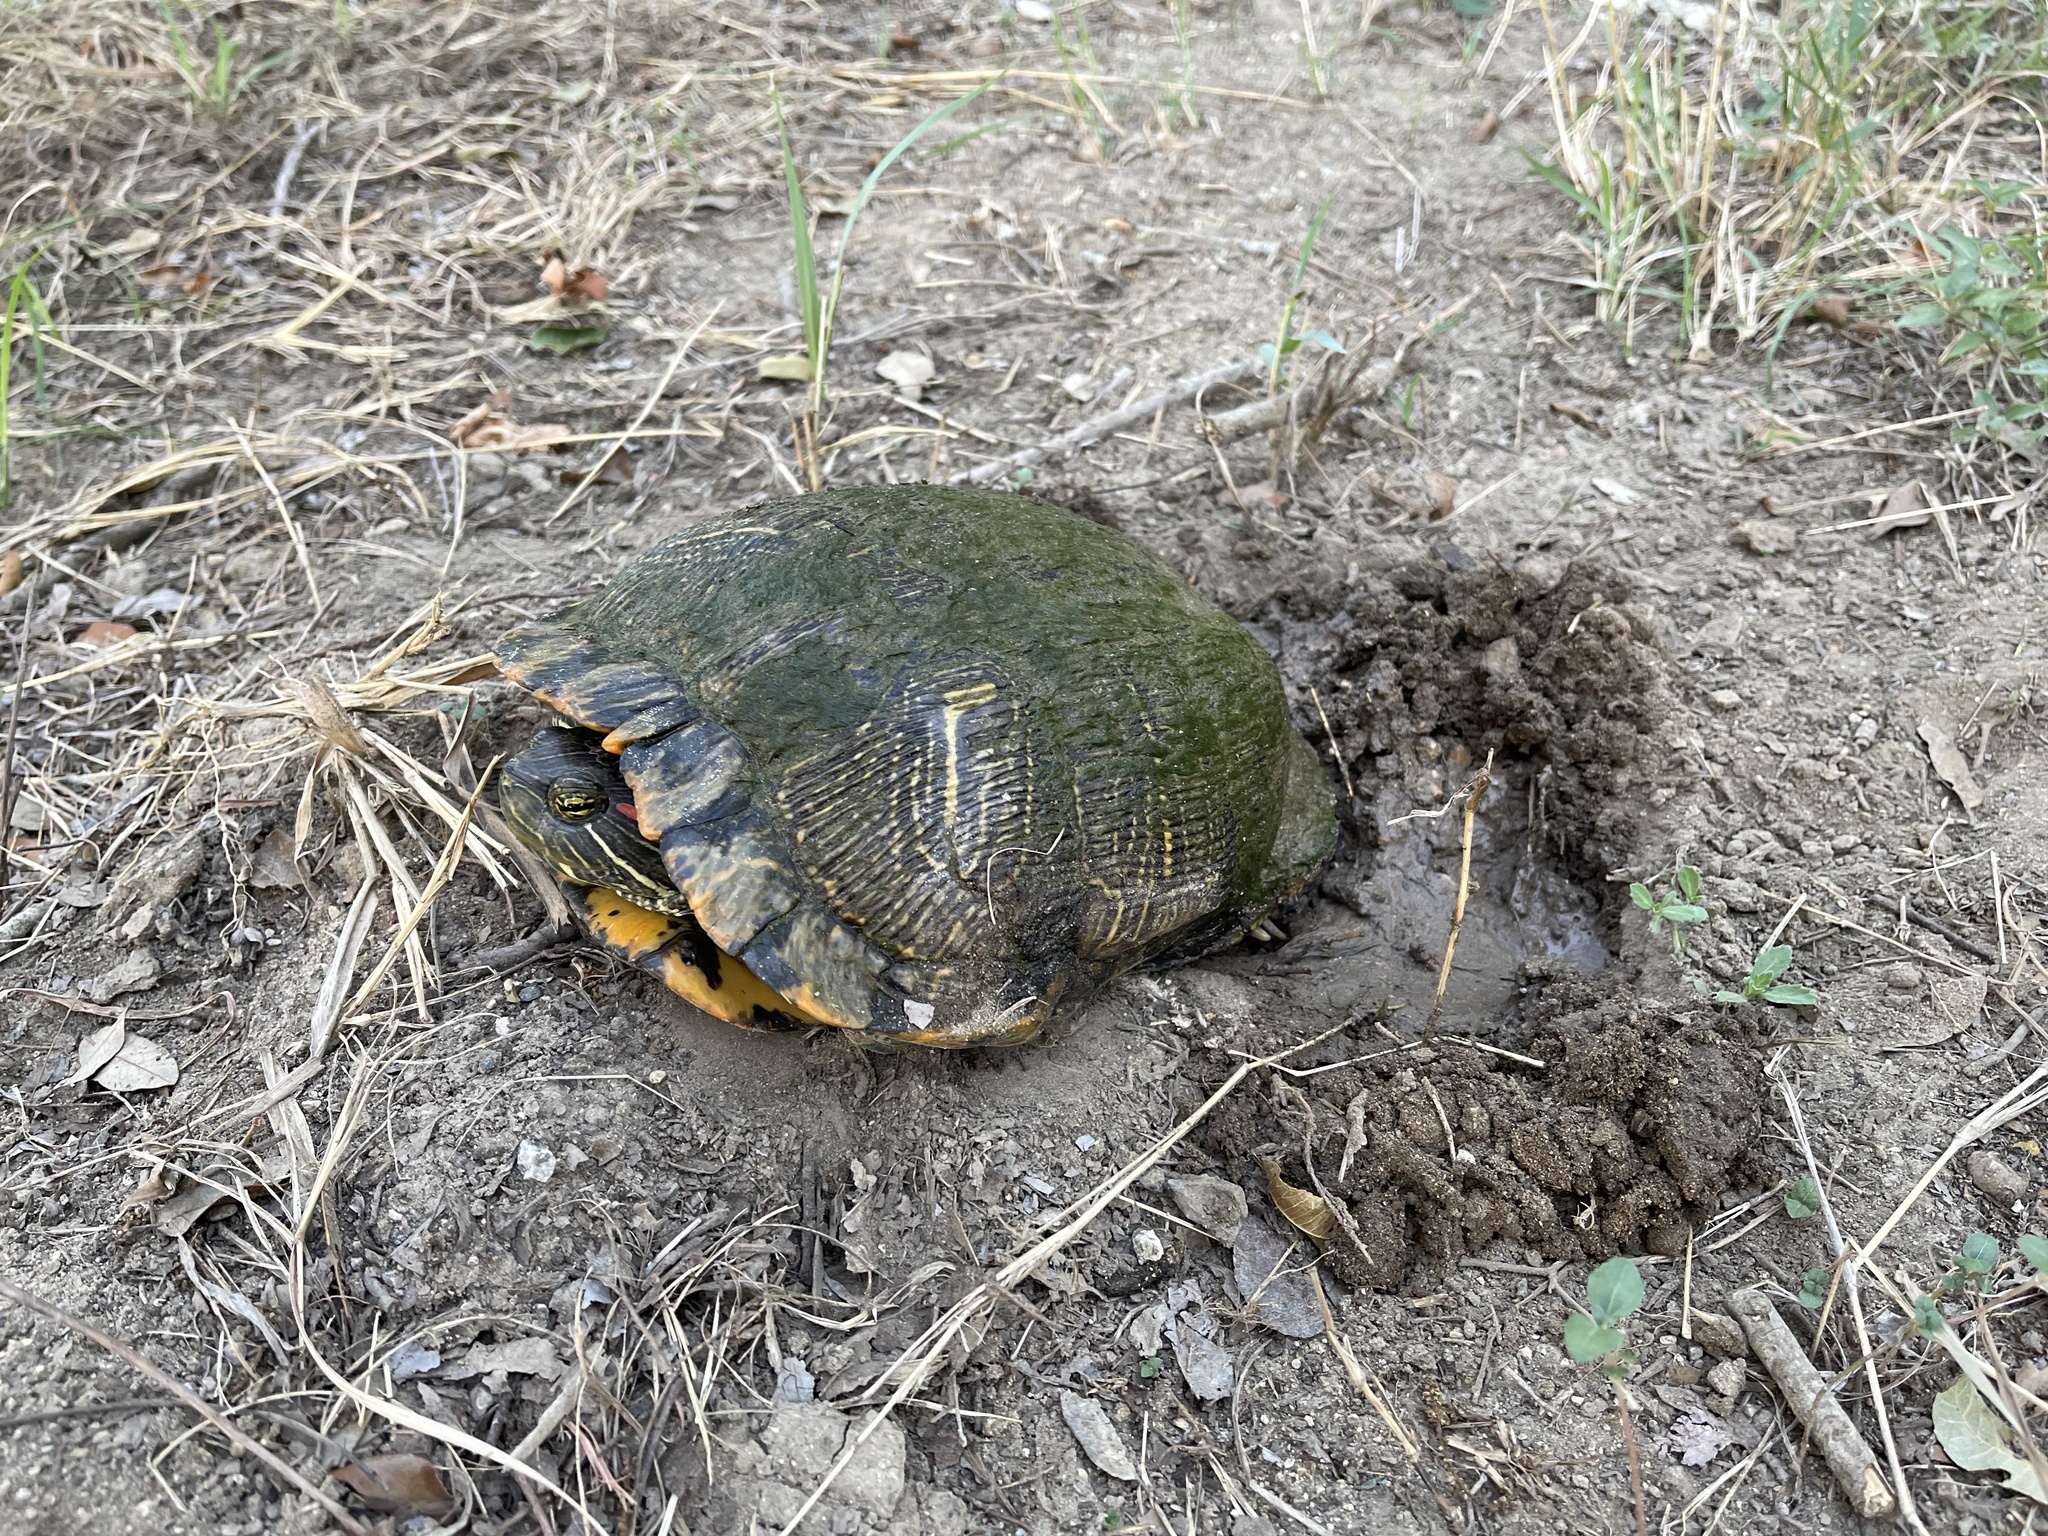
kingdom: Animalia
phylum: Chordata
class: Testudines
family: Emydidae
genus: Trachemys
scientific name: Trachemys scripta
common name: Slider
